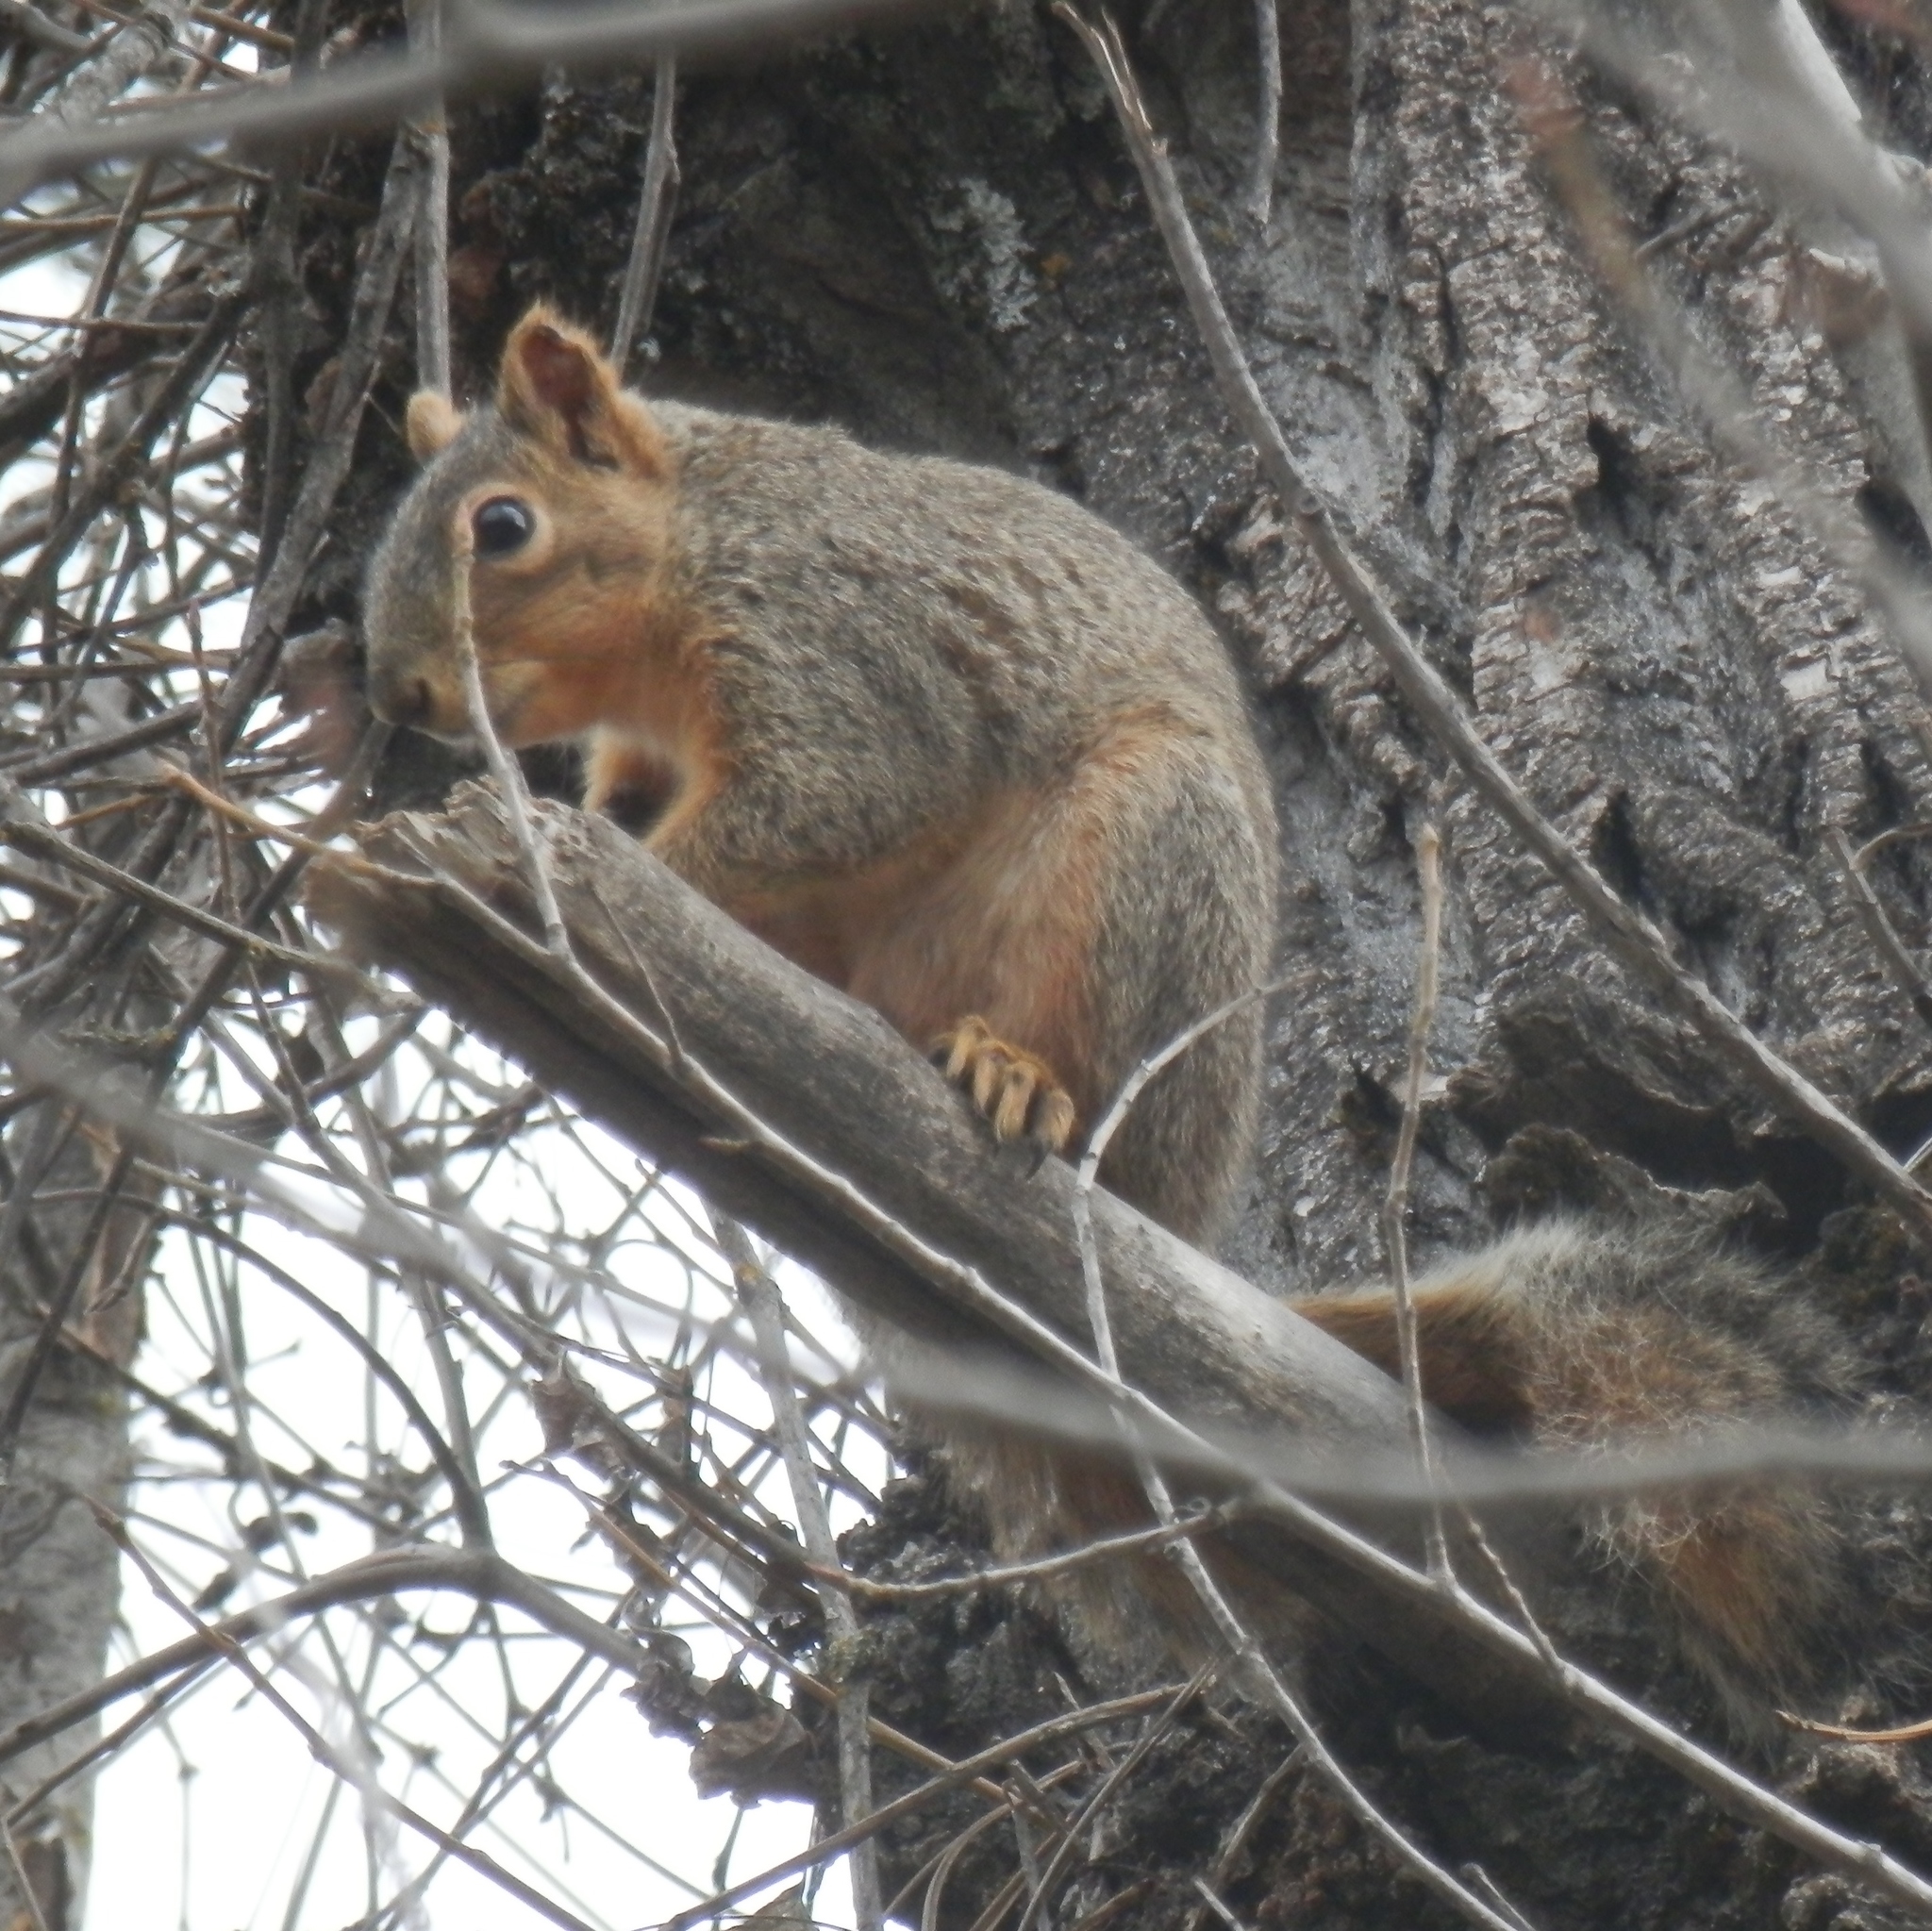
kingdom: Animalia
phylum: Chordata
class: Mammalia
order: Rodentia
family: Sciuridae
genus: Sciurus
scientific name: Sciurus niger
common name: Fox squirrel
